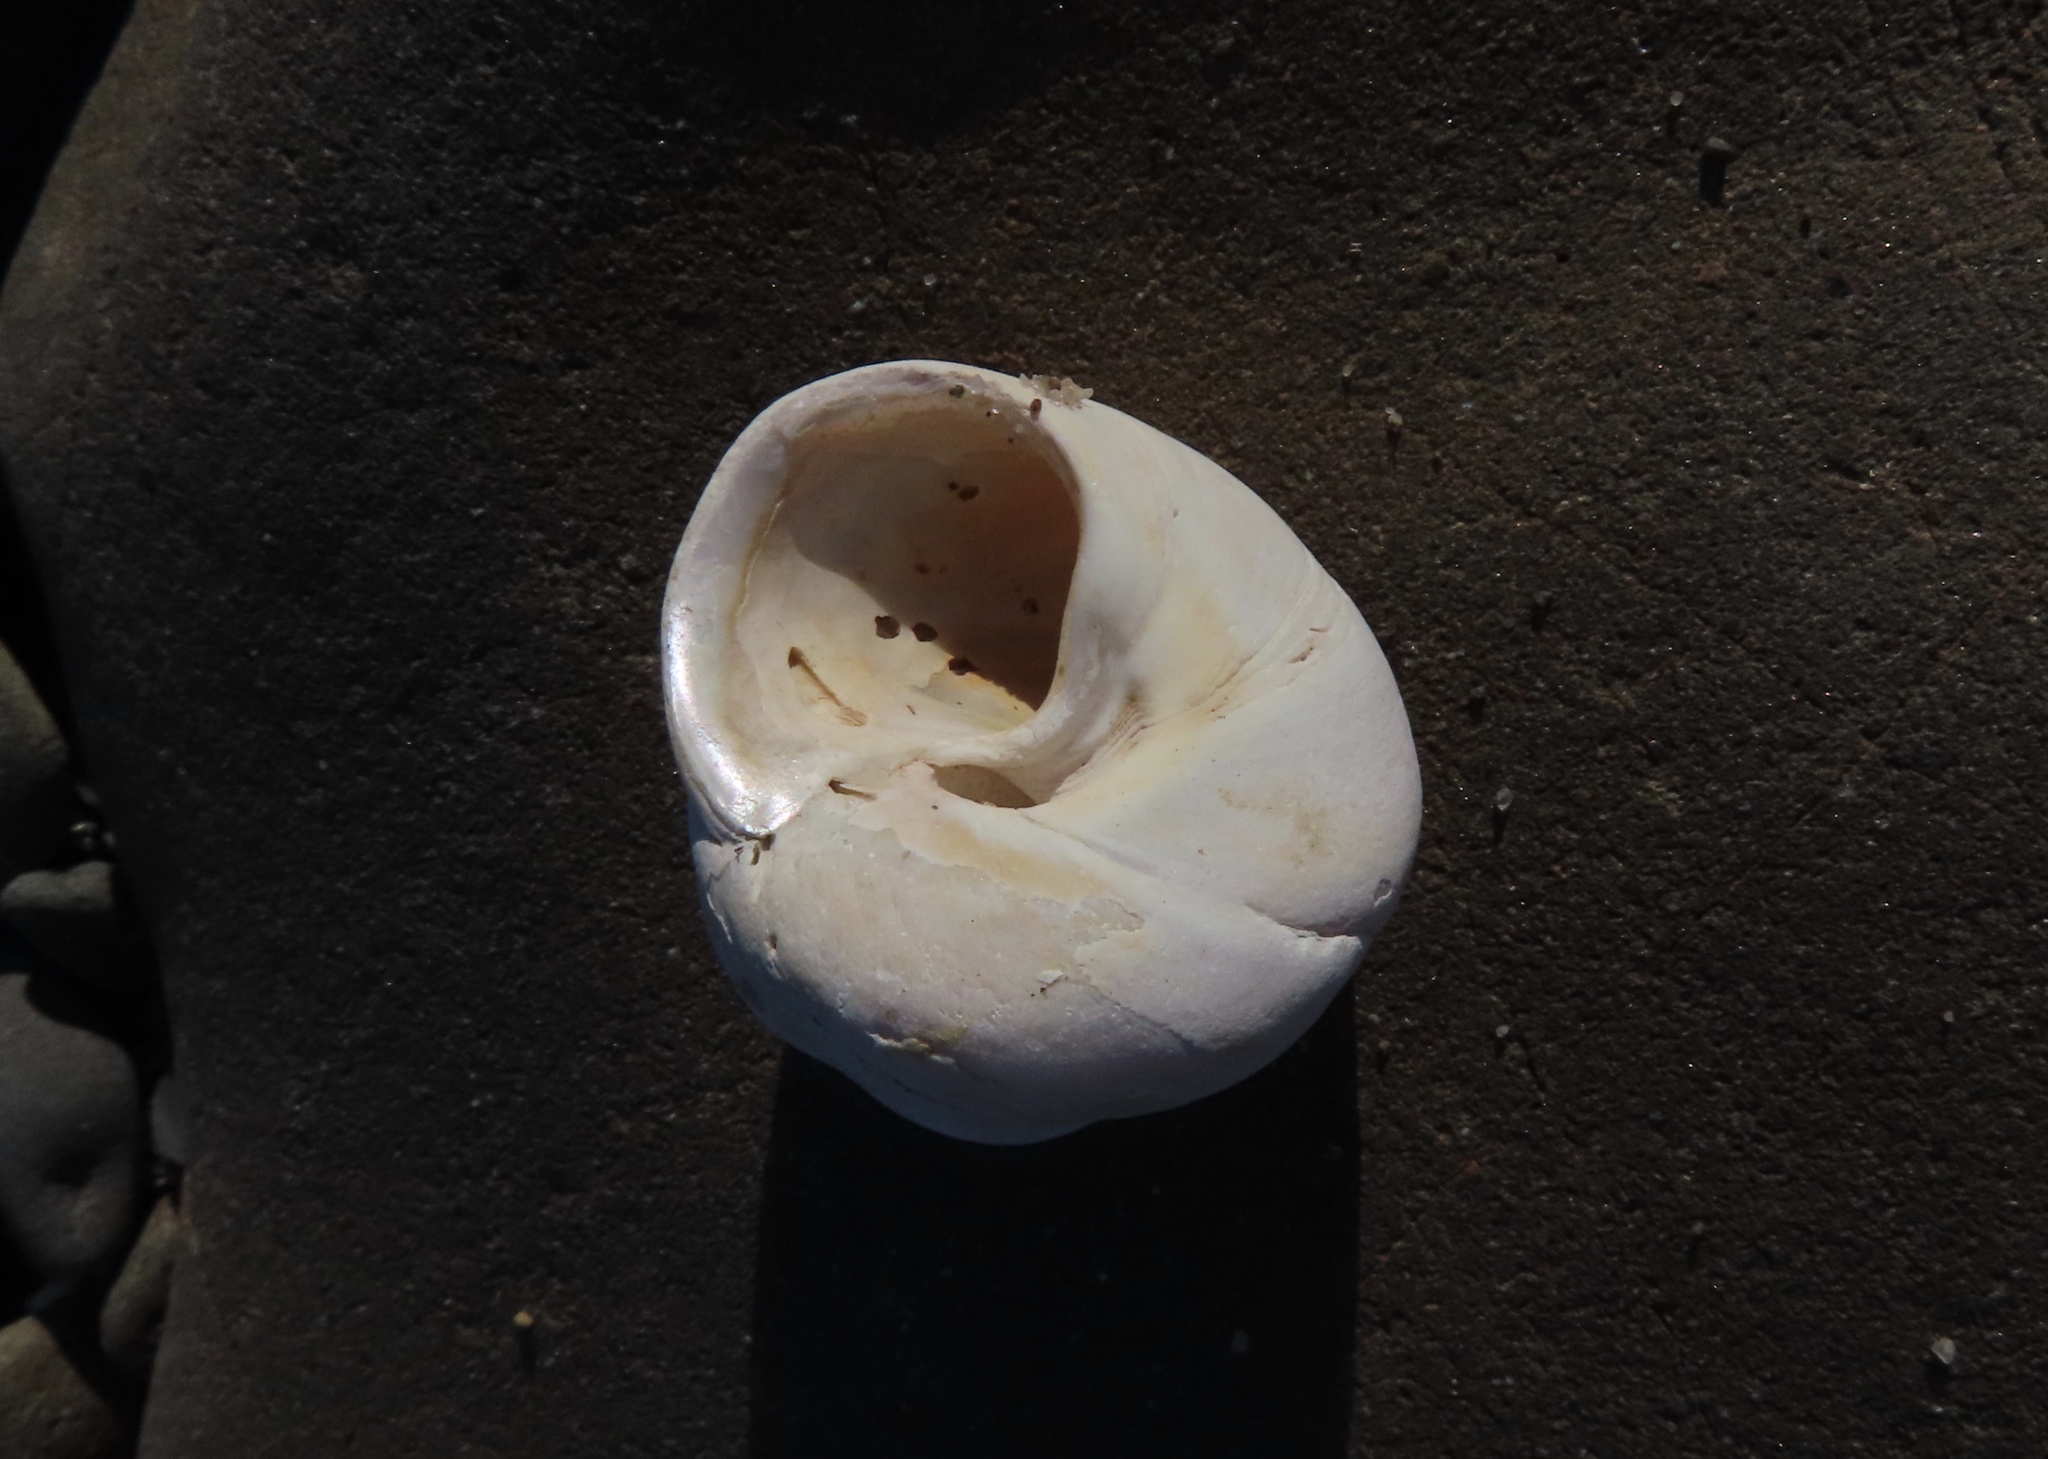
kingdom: Animalia
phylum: Mollusca
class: Gastropoda
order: Trochida
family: Trochidae
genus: Gibbula
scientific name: Gibbula magus
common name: Turban top shell
